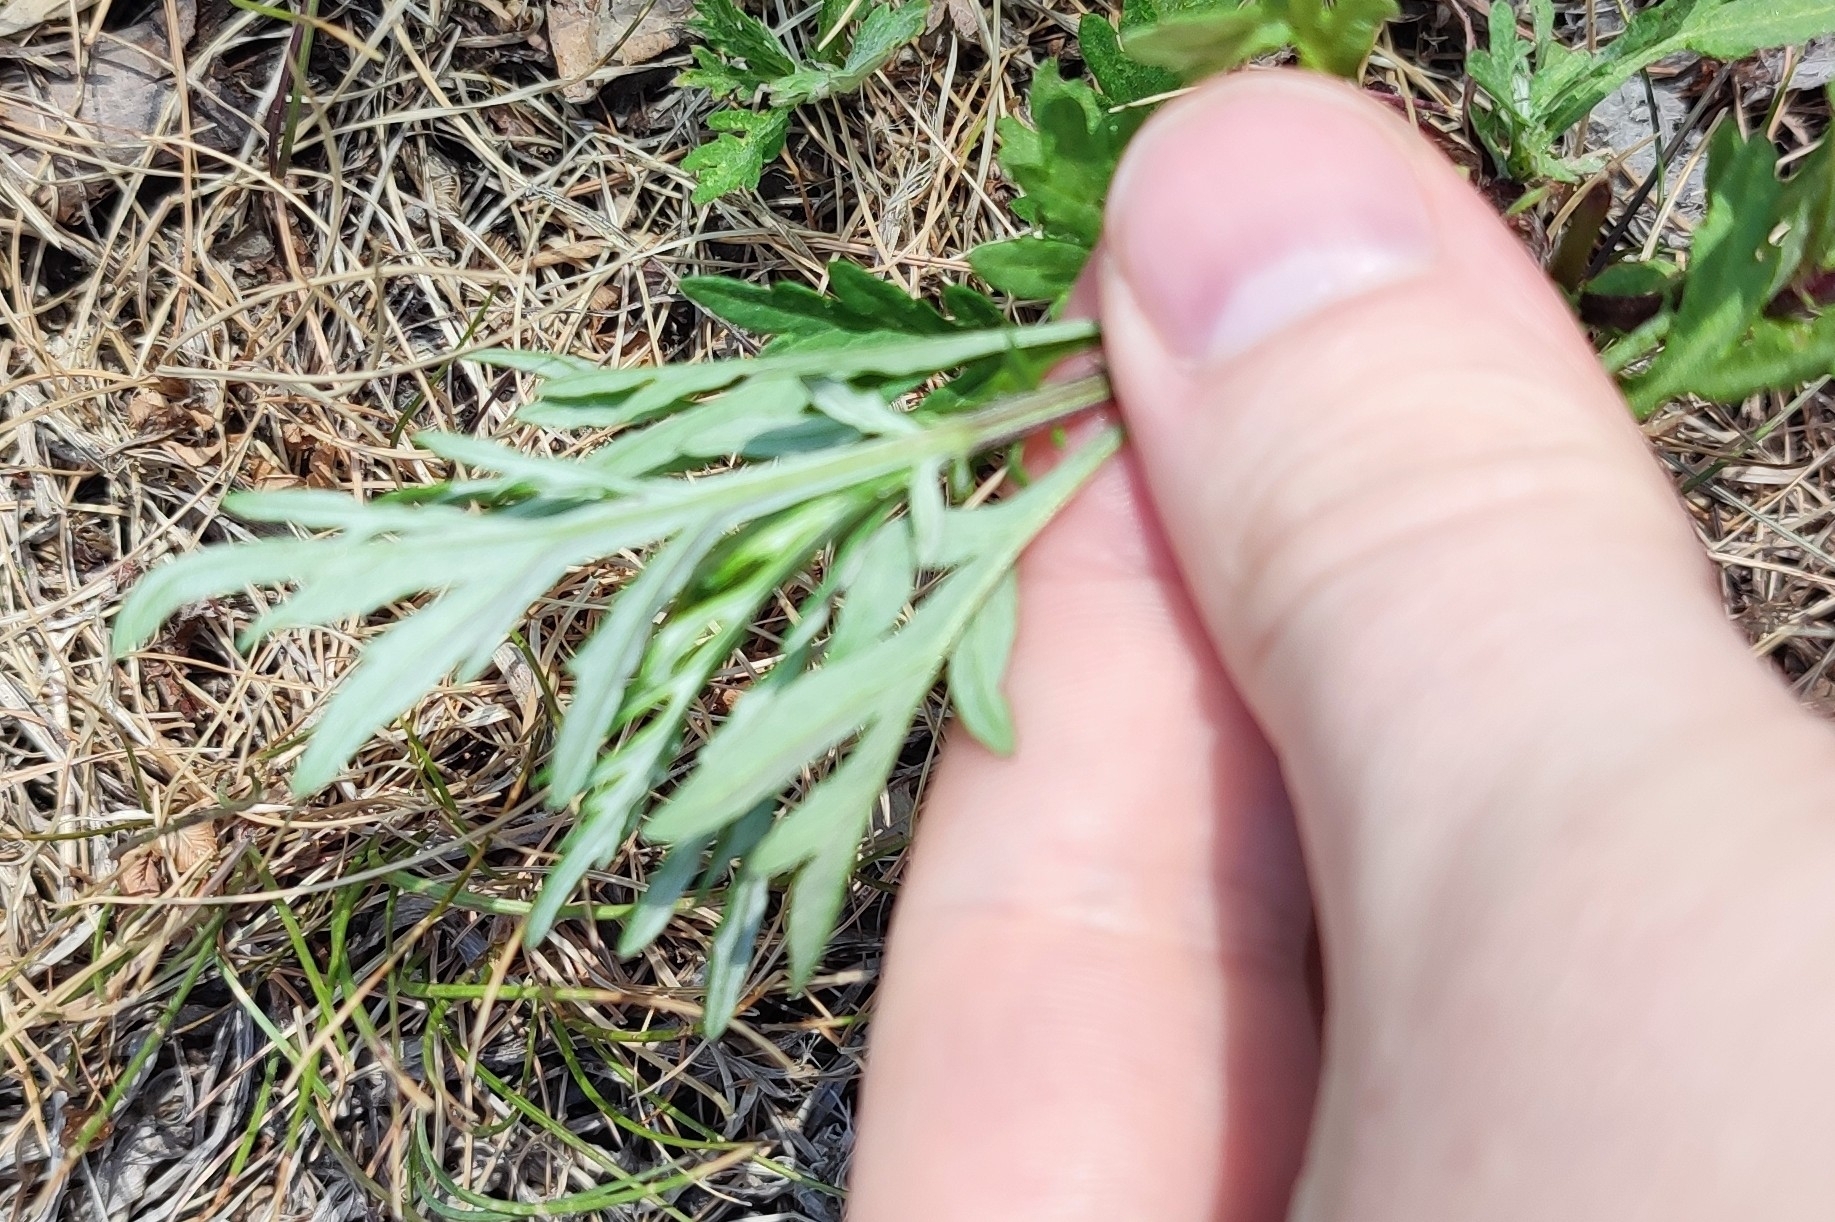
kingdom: Plantae
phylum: Tracheophyta
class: Magnoliopsida
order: Asterales
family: Asteraceae
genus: Artemisia
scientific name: Artemisia vulgaris
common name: Mugwort
